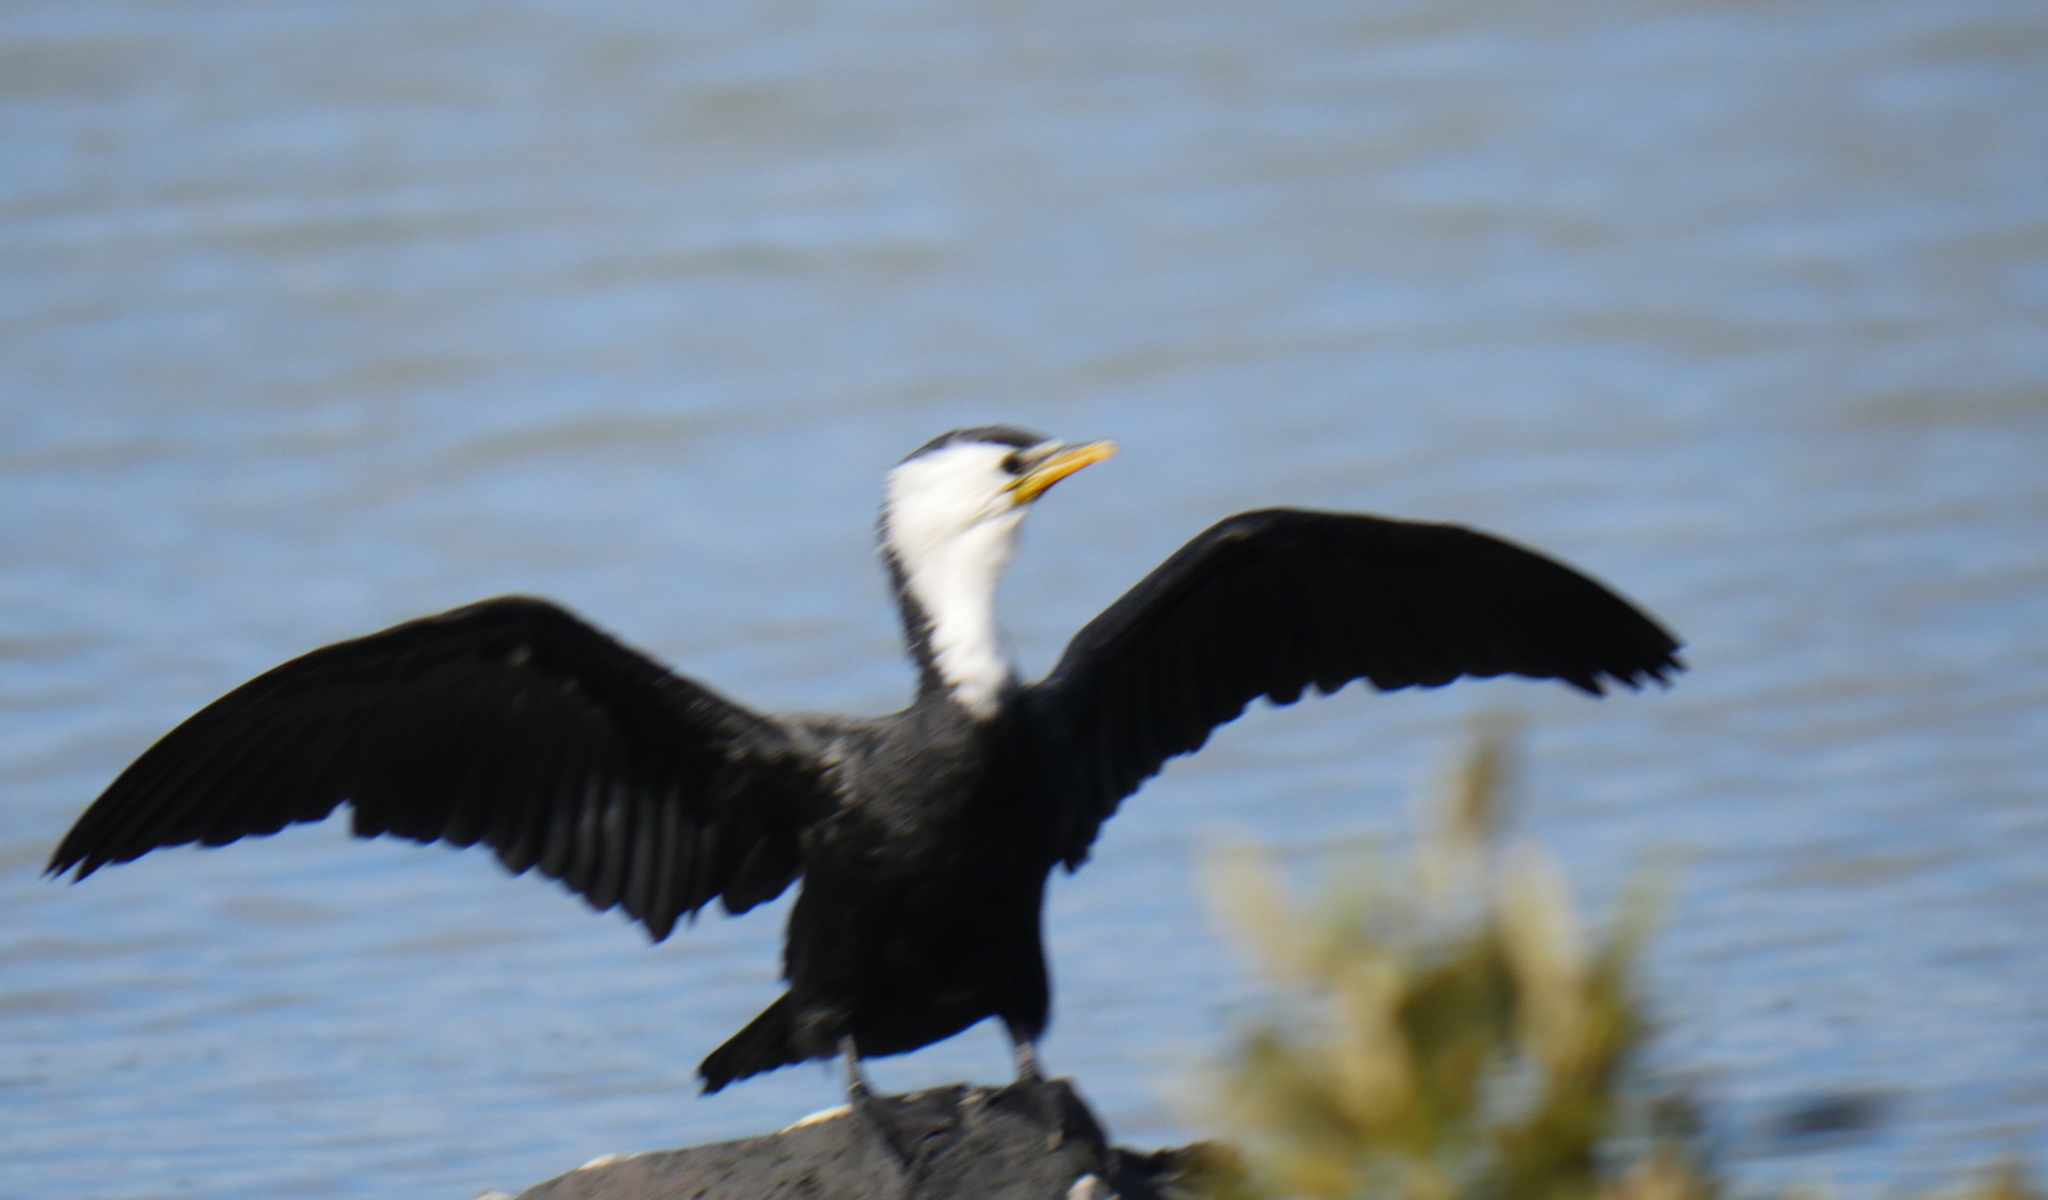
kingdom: Animalia
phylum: Chordata
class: Aves
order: Suliformes
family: Phalacrocoracidae
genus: Microcarbo
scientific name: Microcarbo melanoleucos
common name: Little pied cormorant
